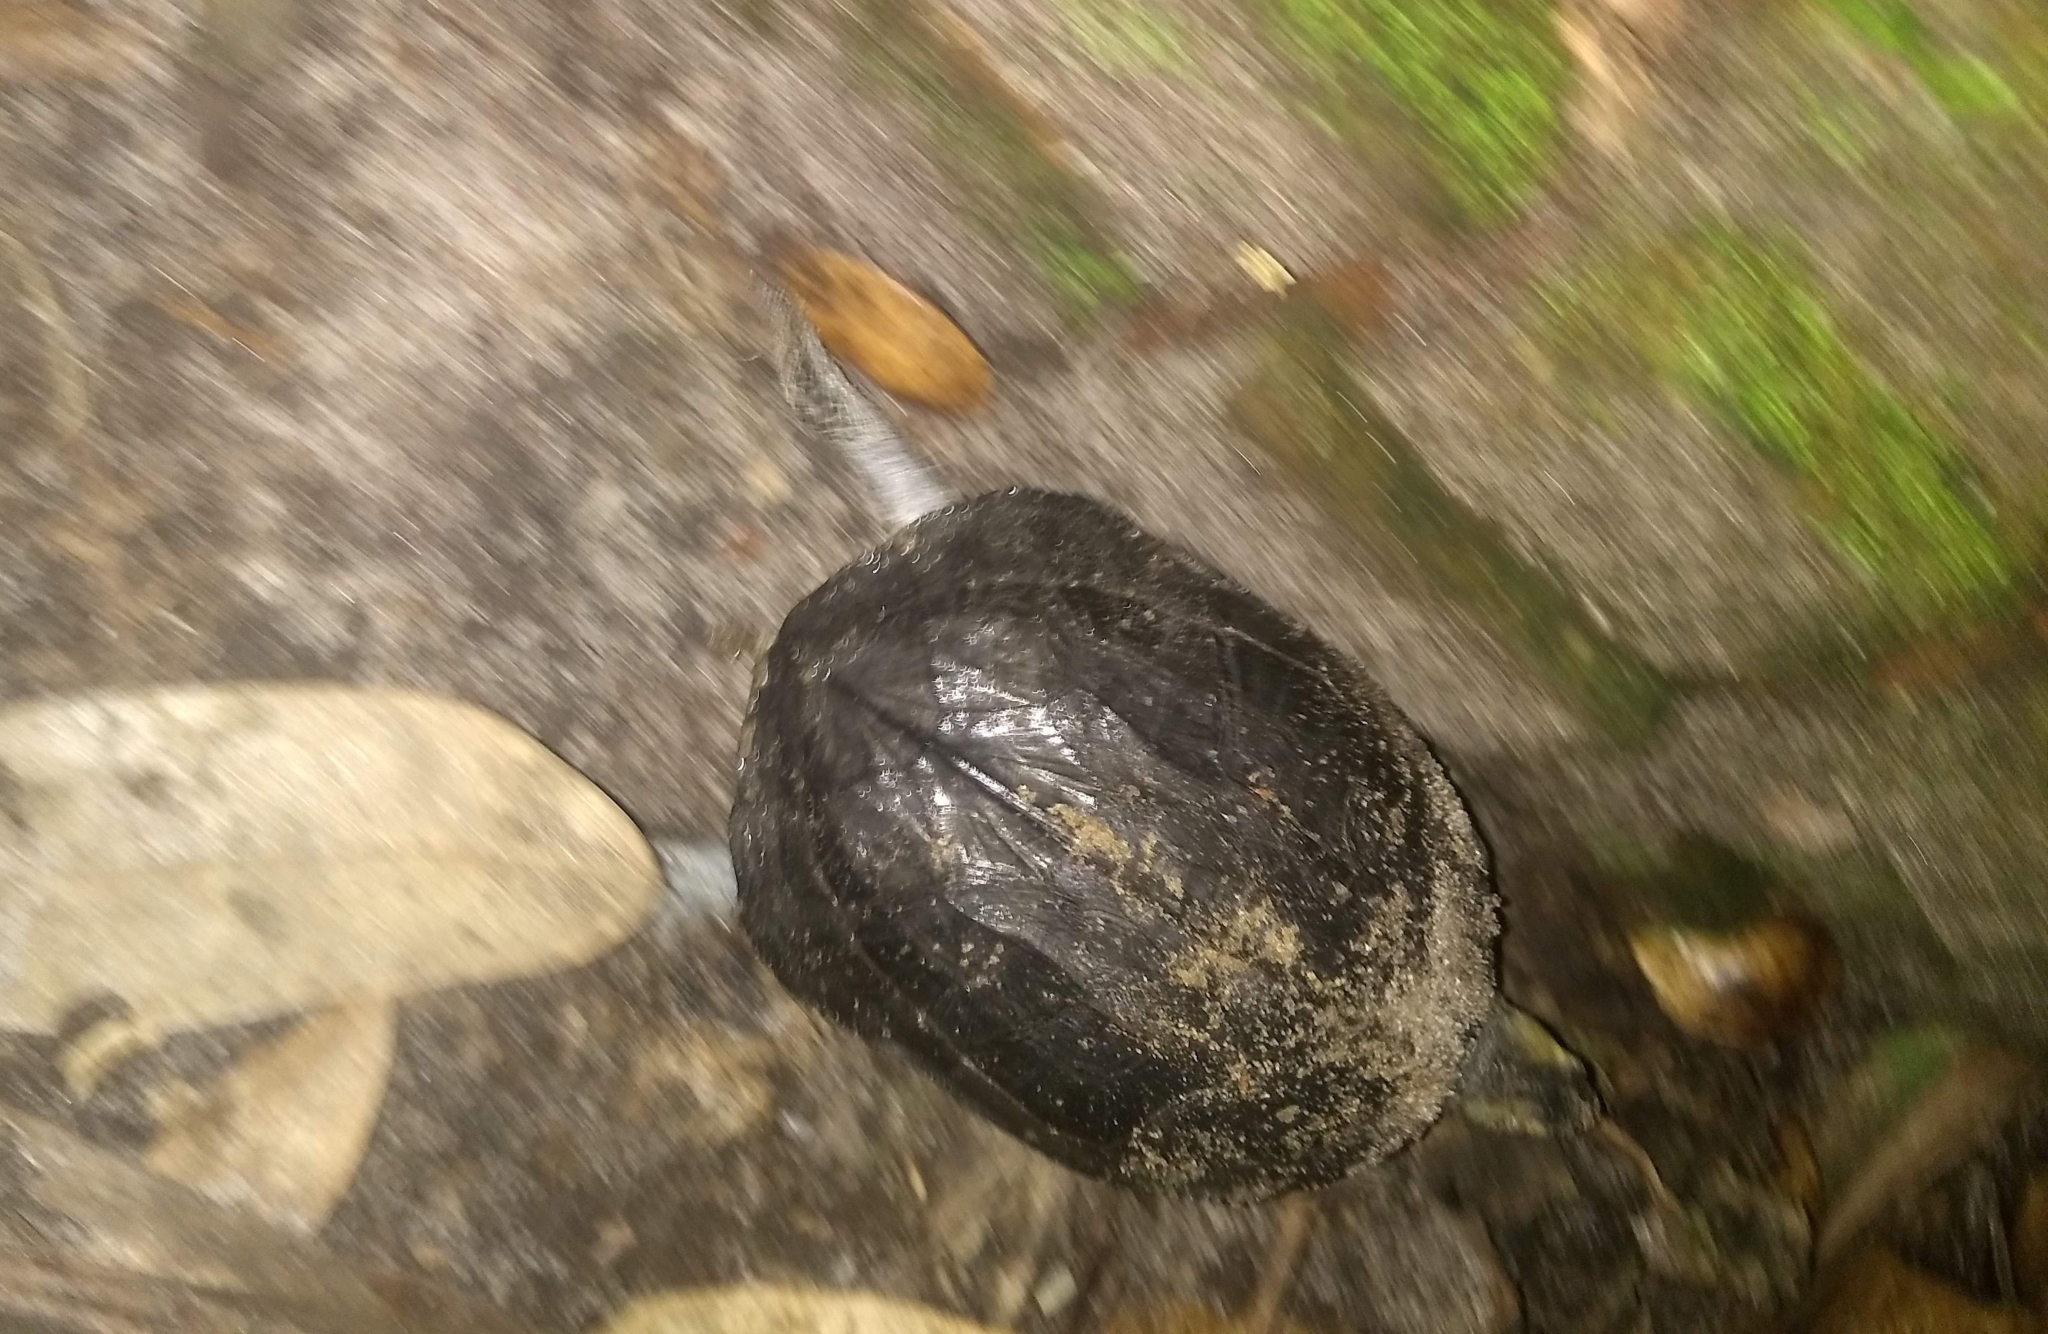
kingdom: Animalia
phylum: Chordata
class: Testudines
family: Geoemydidae
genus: Melanochelys
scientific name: Melanochelys trijuga
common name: Indian black turtle
